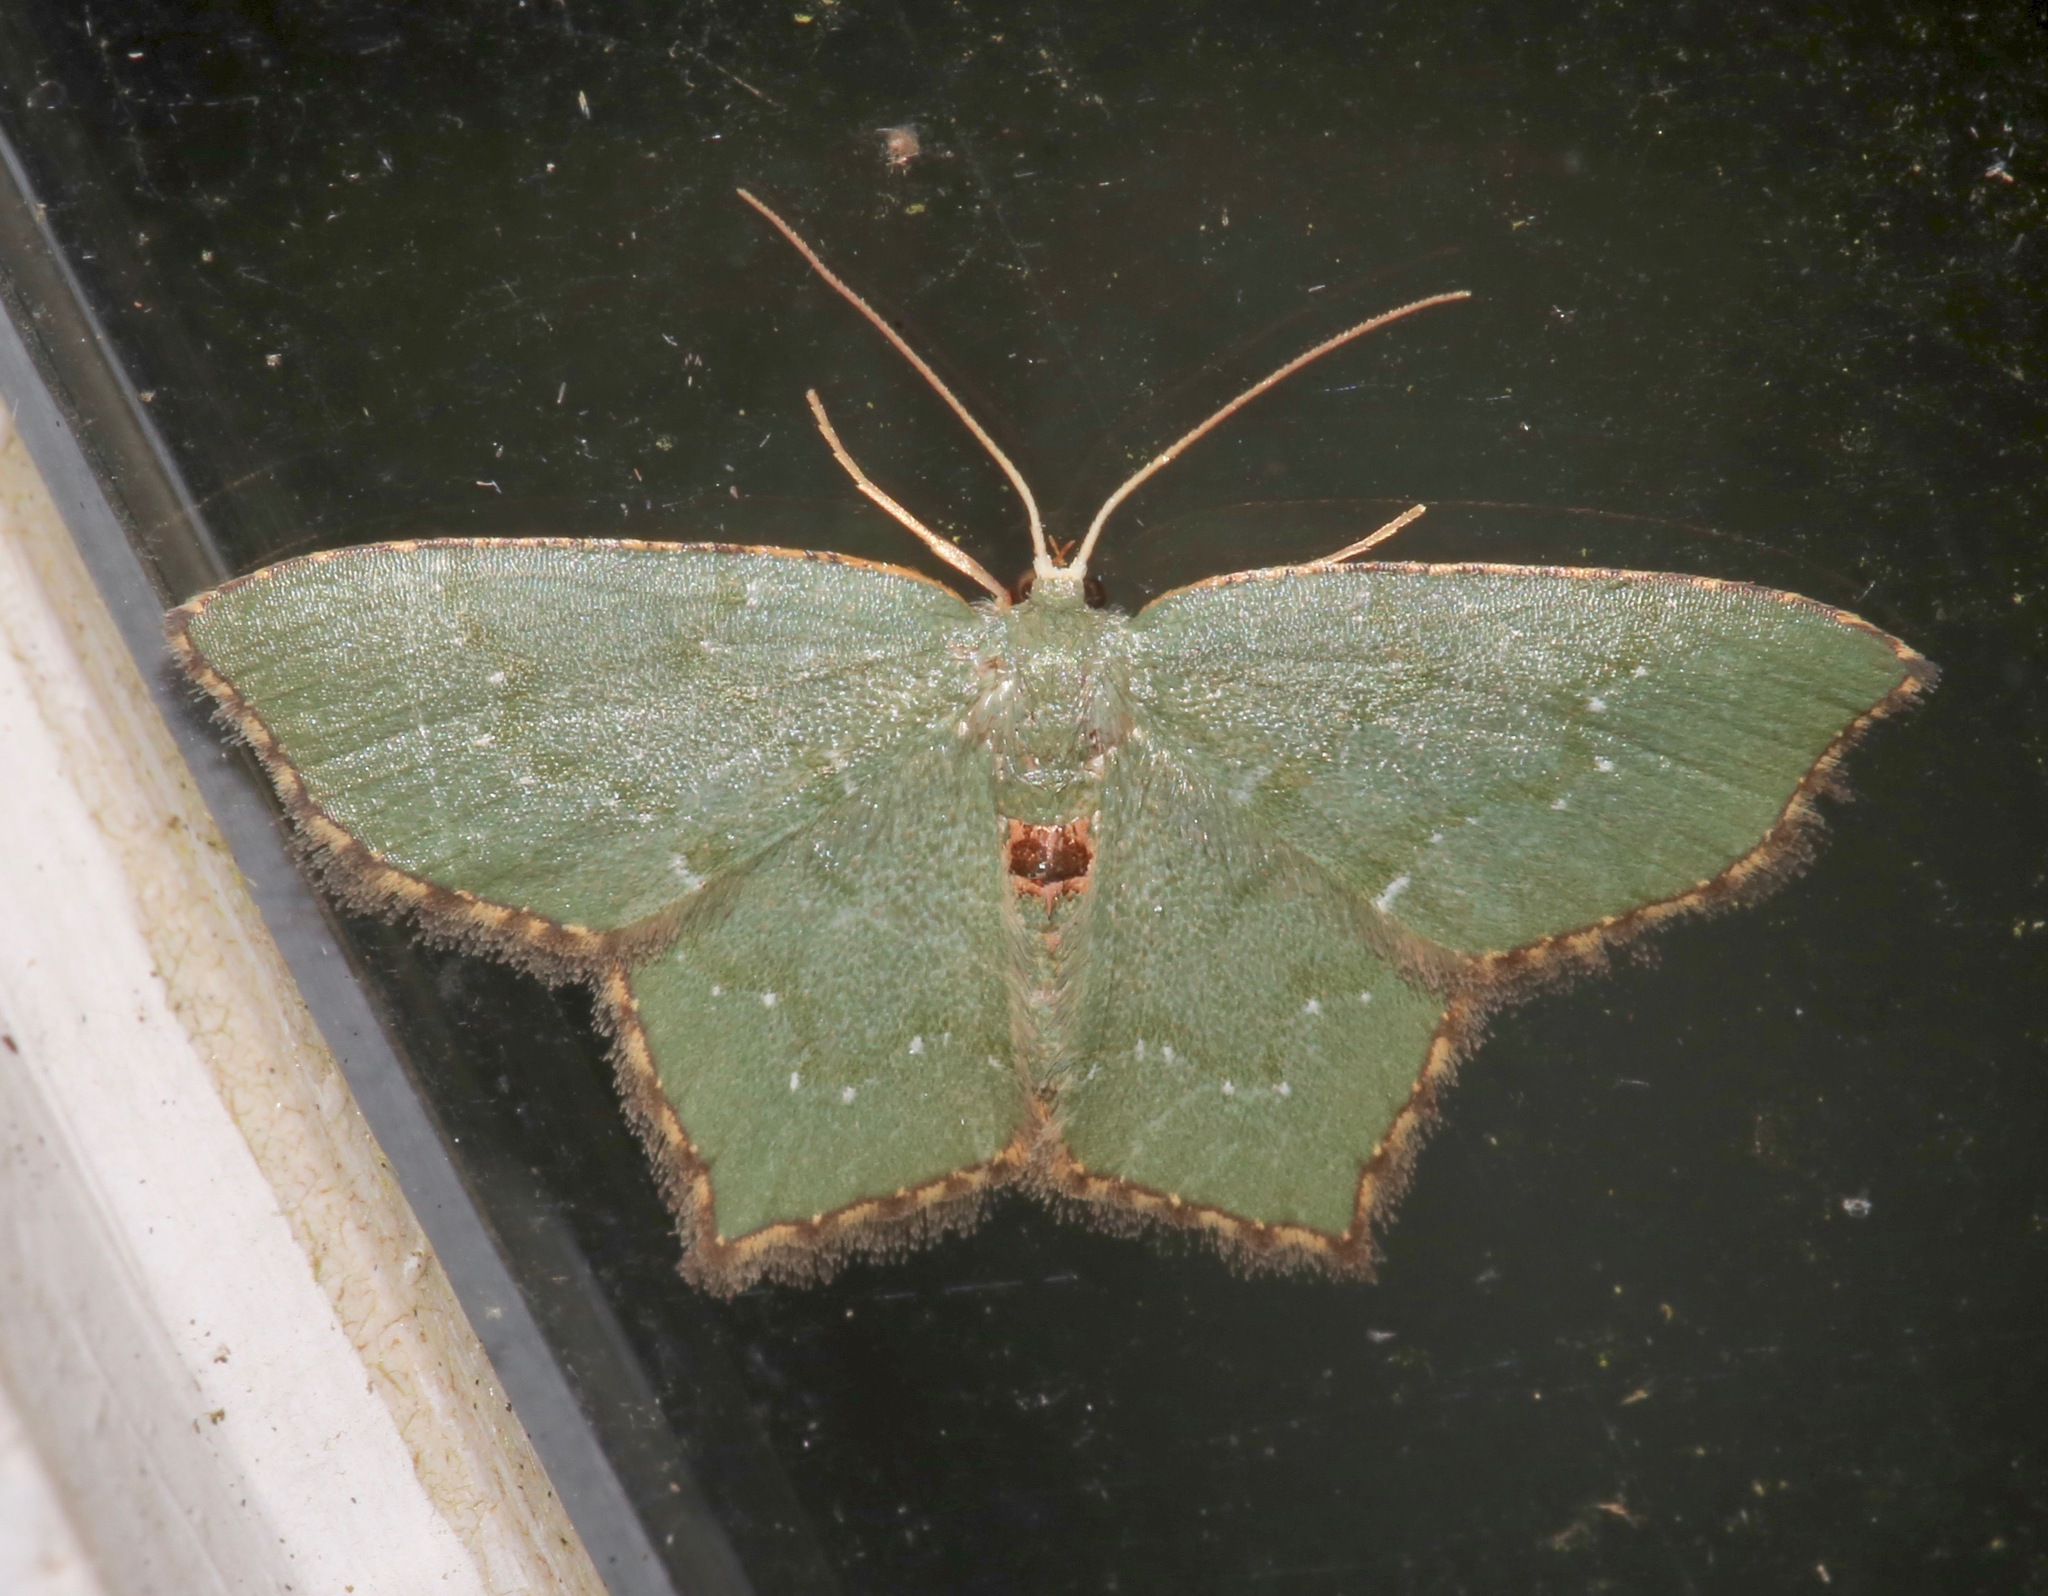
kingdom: Animalia
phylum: Arthropoda
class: Insecta
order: Lepidoptera
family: Geometridae
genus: Chloropteryx
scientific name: Chloropteryx tepperaria
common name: Angle winged emerald moth
